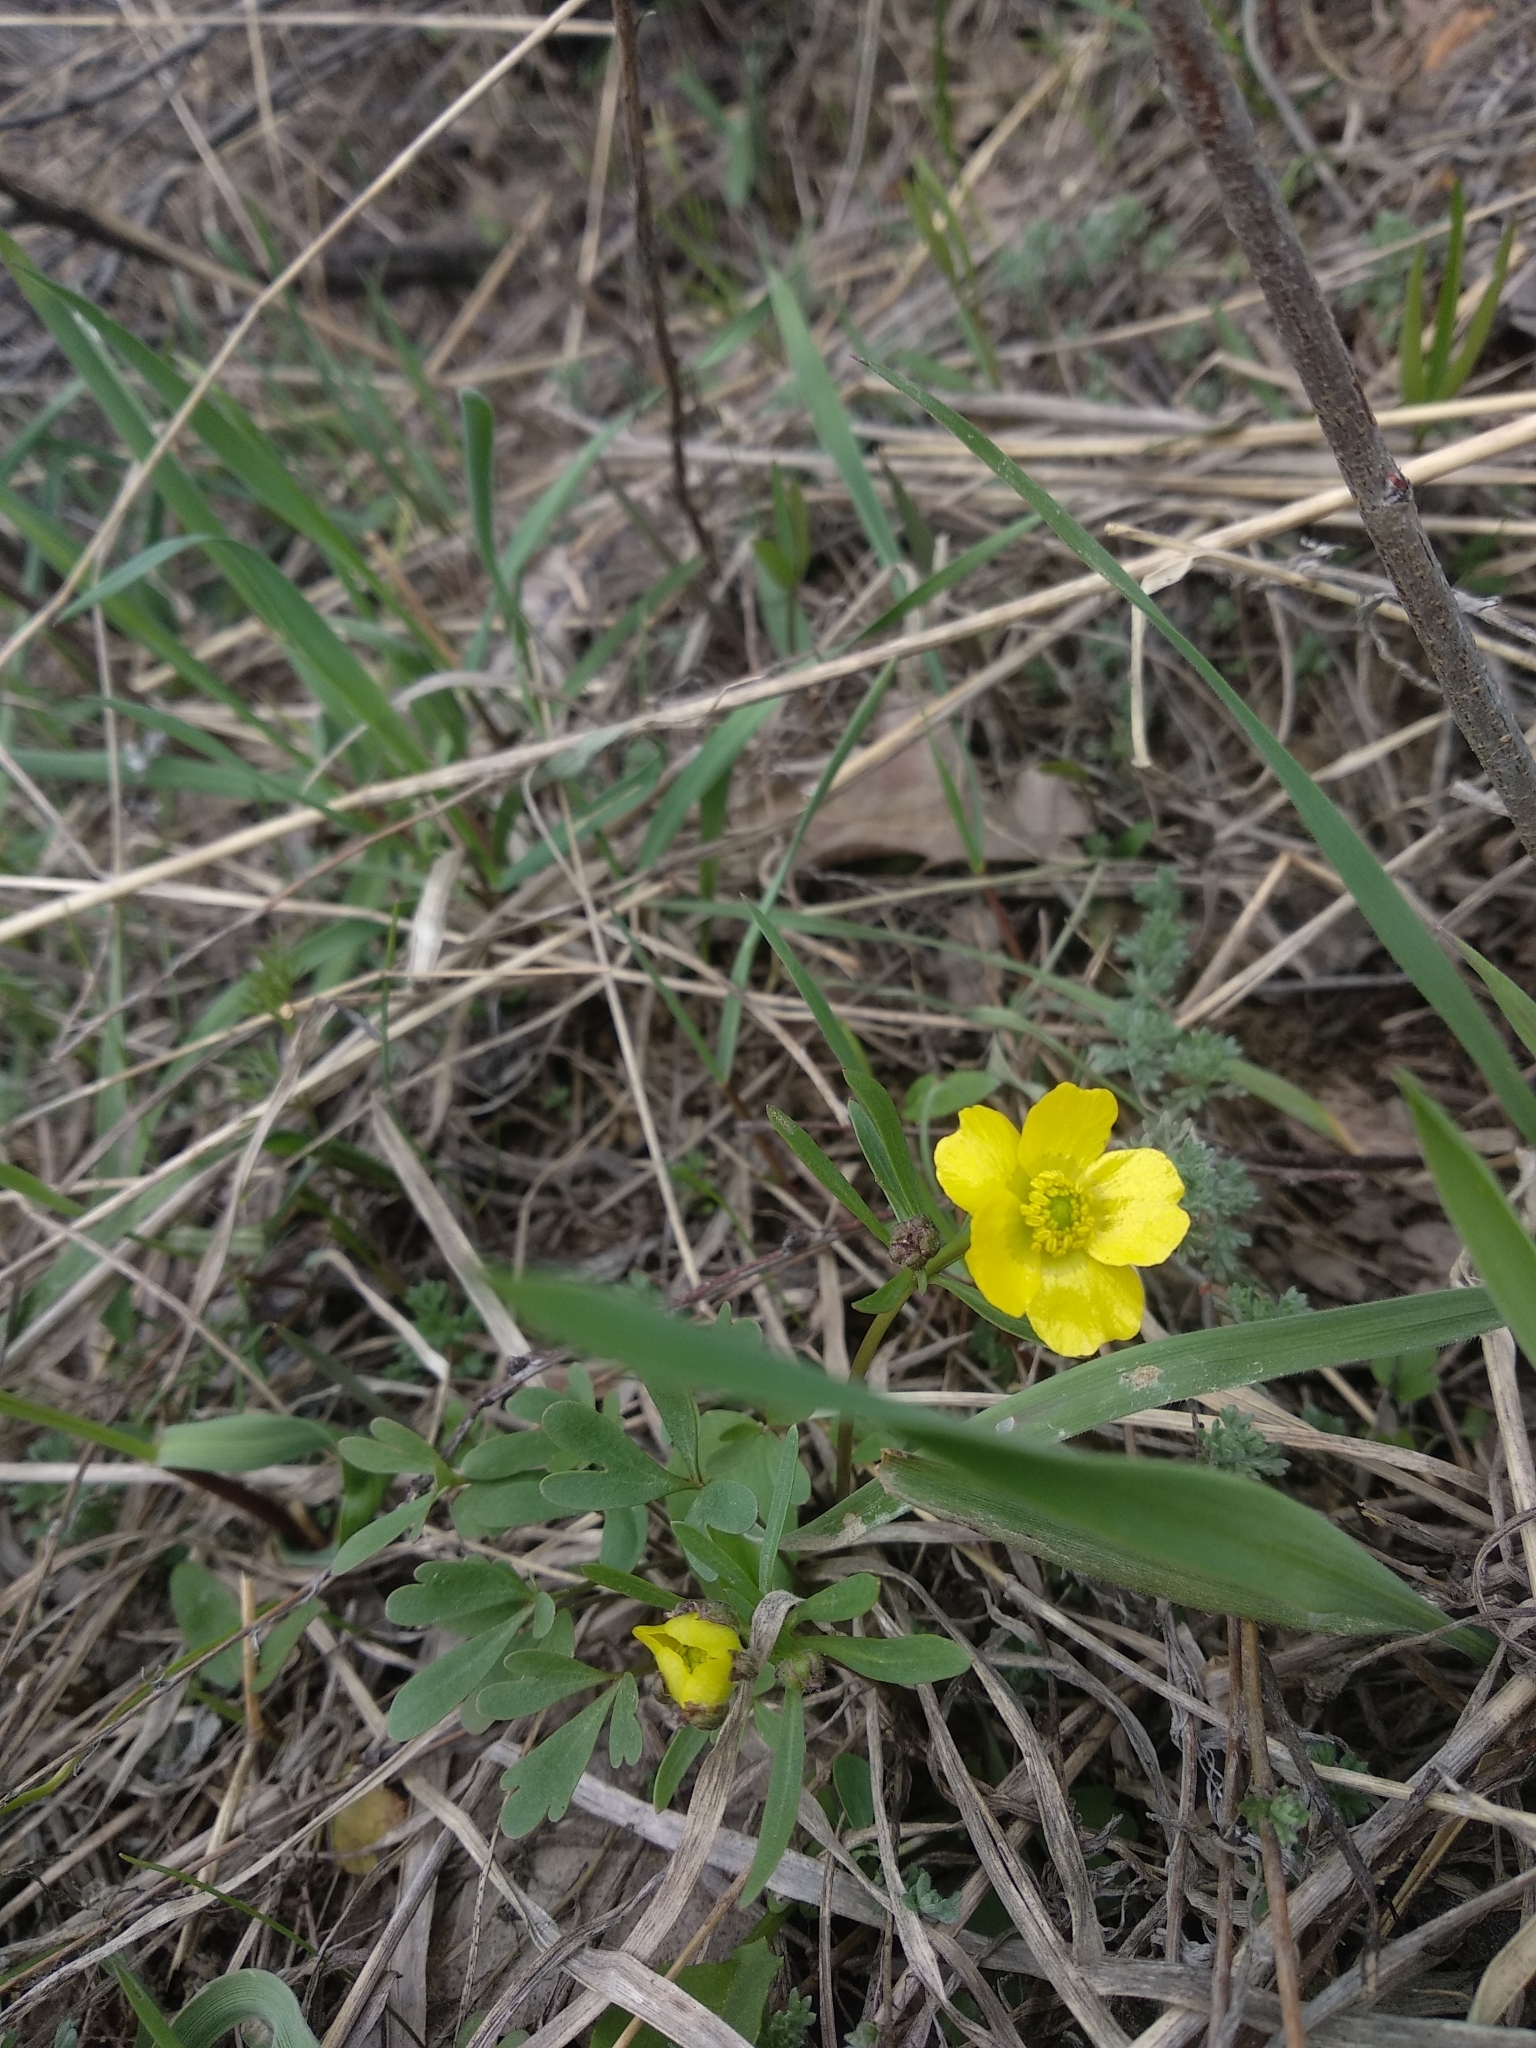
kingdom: Plantae
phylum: Tracheophyta
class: Magnoliopsida
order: Ranunculales
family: Ranunculaceae
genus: Ranunculus
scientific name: Ranunculus polyrhizos
